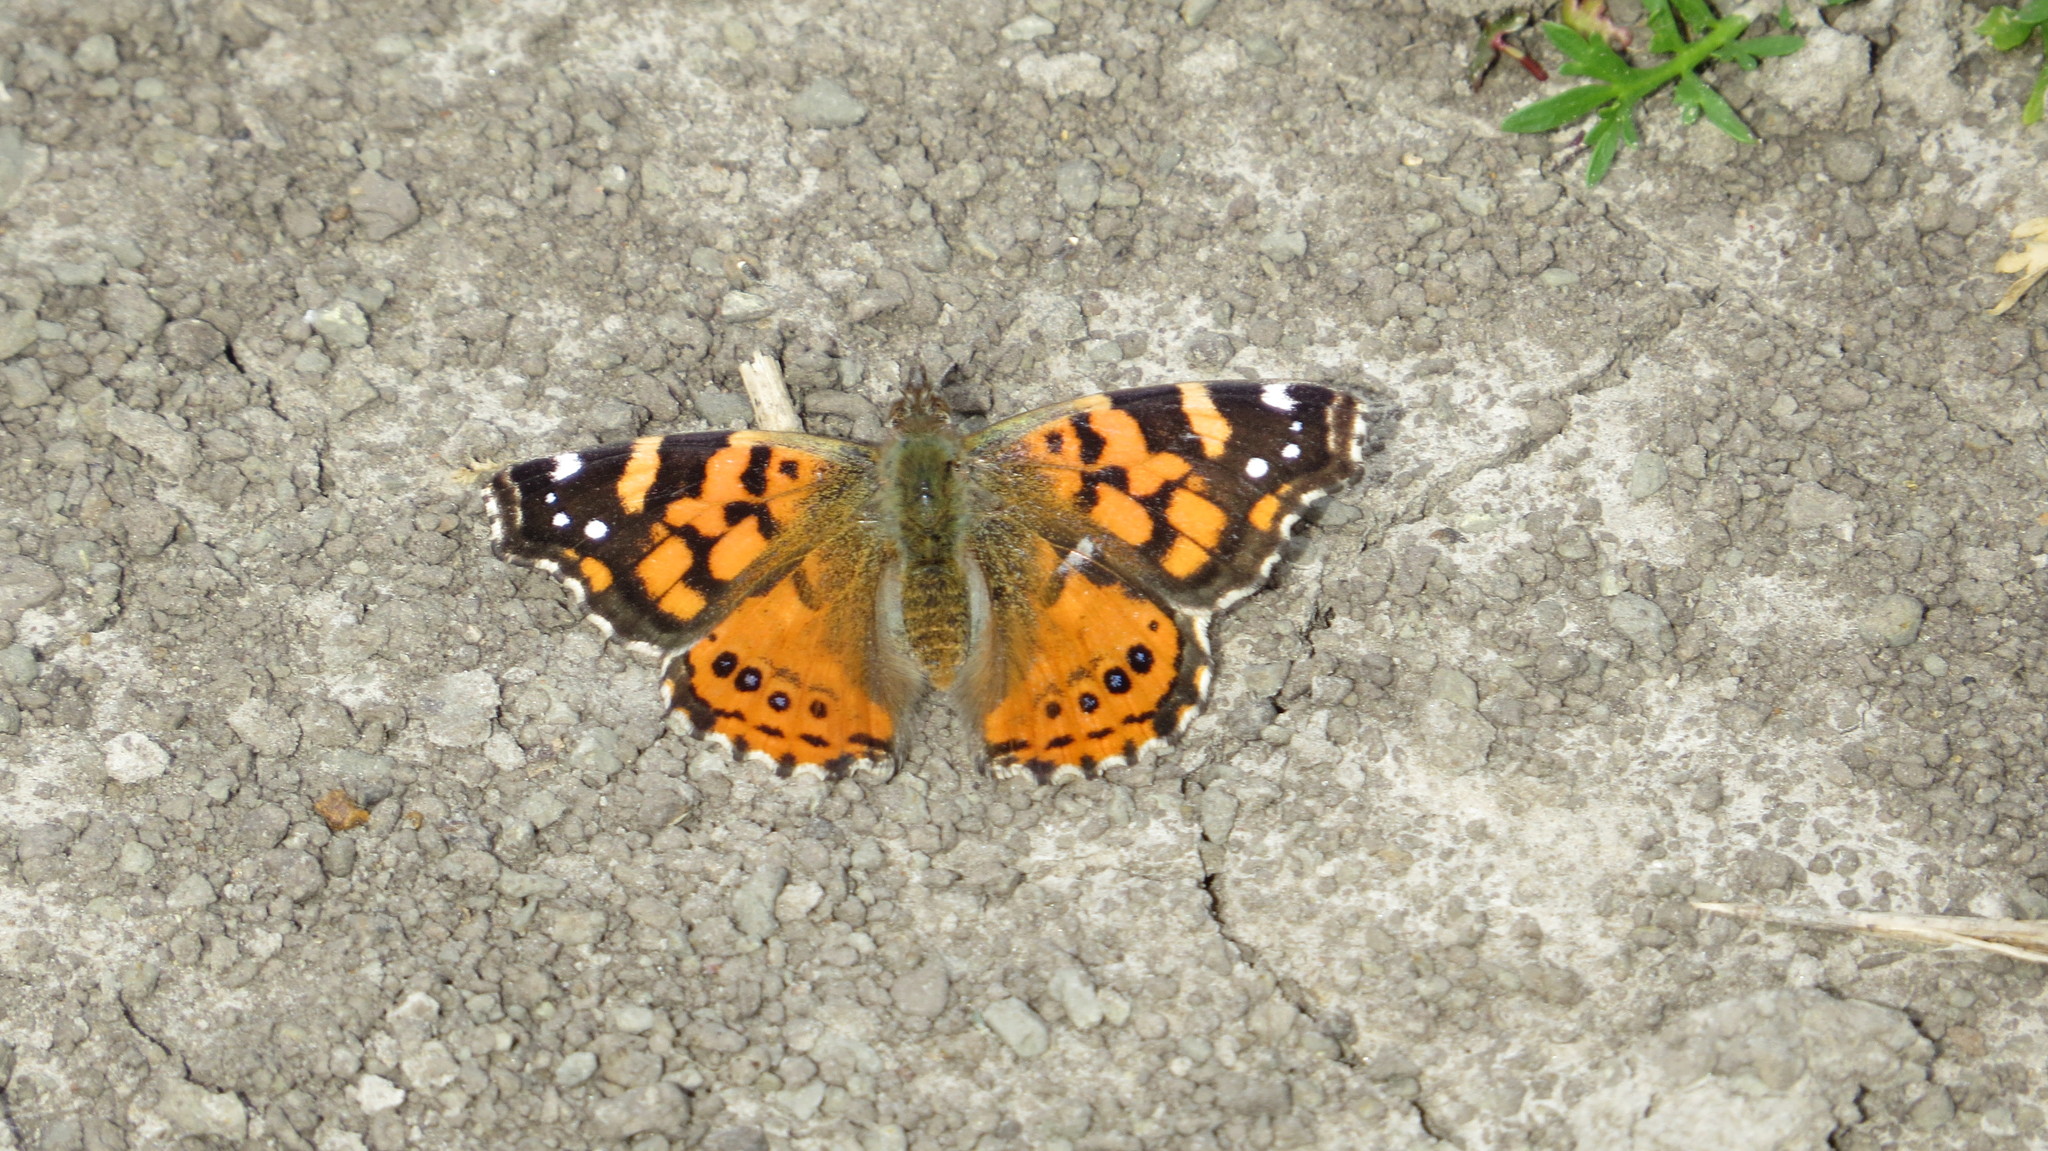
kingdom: Animalia
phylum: Arthropoda
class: Insecta
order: Lepidoptera
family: Nymphalidae
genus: Vanessa
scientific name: Vanessa carye
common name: Subtropical lady
